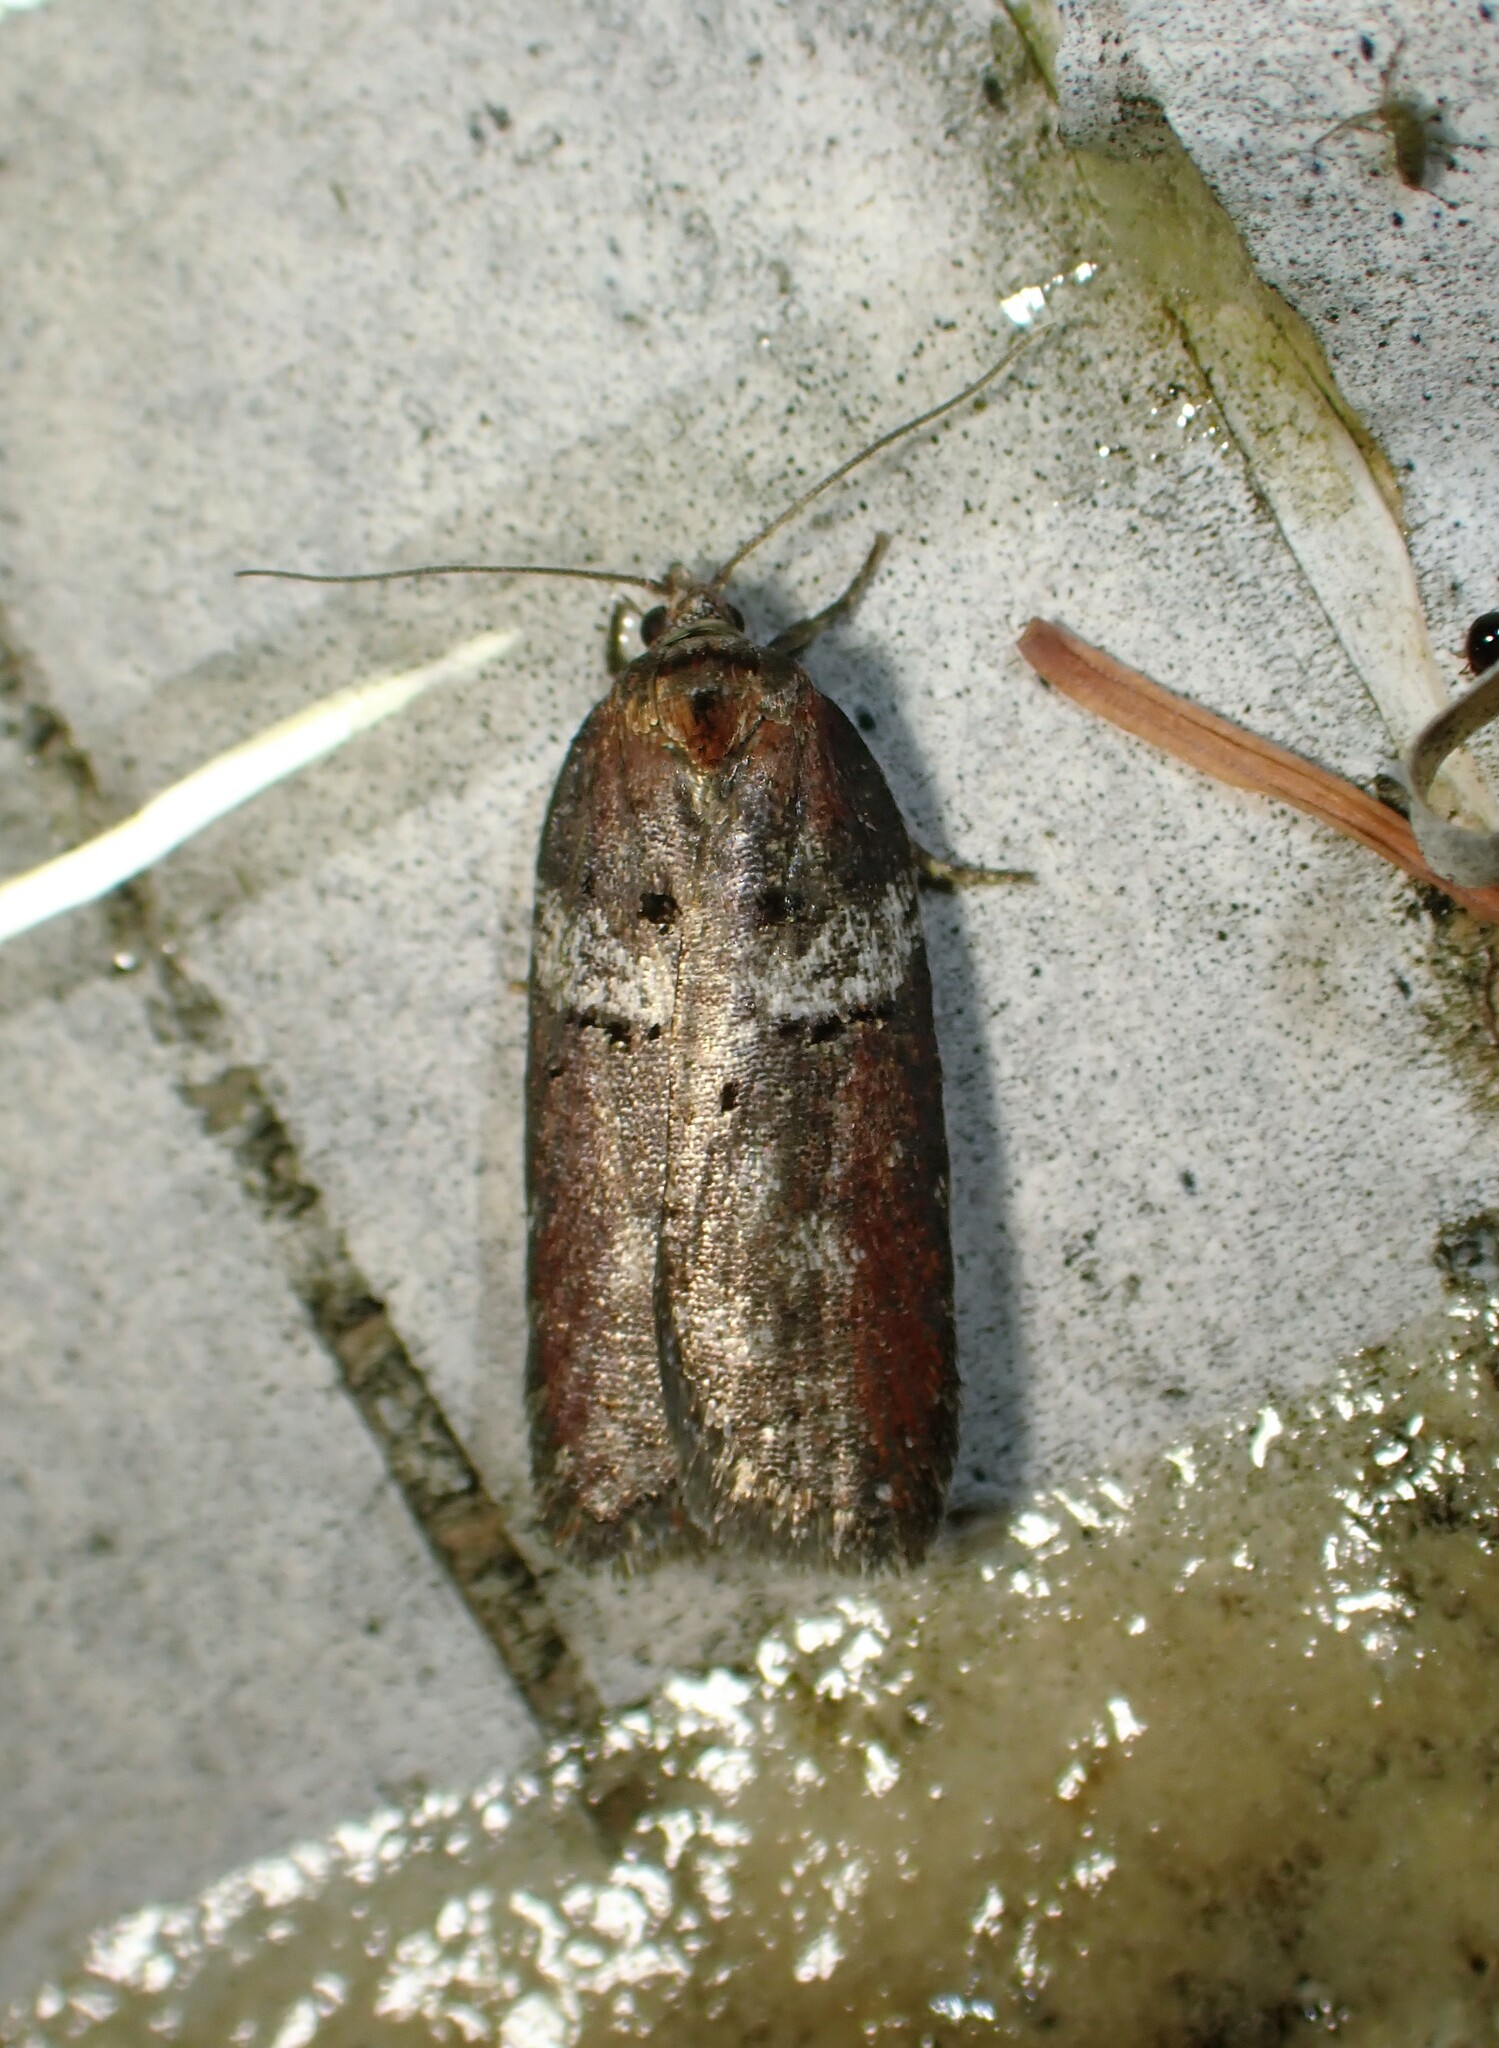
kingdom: Animalia
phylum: Arthropoda
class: Insecta
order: Lepidoptera
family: Tortricidae
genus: Acleris
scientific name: Acleris celiana
